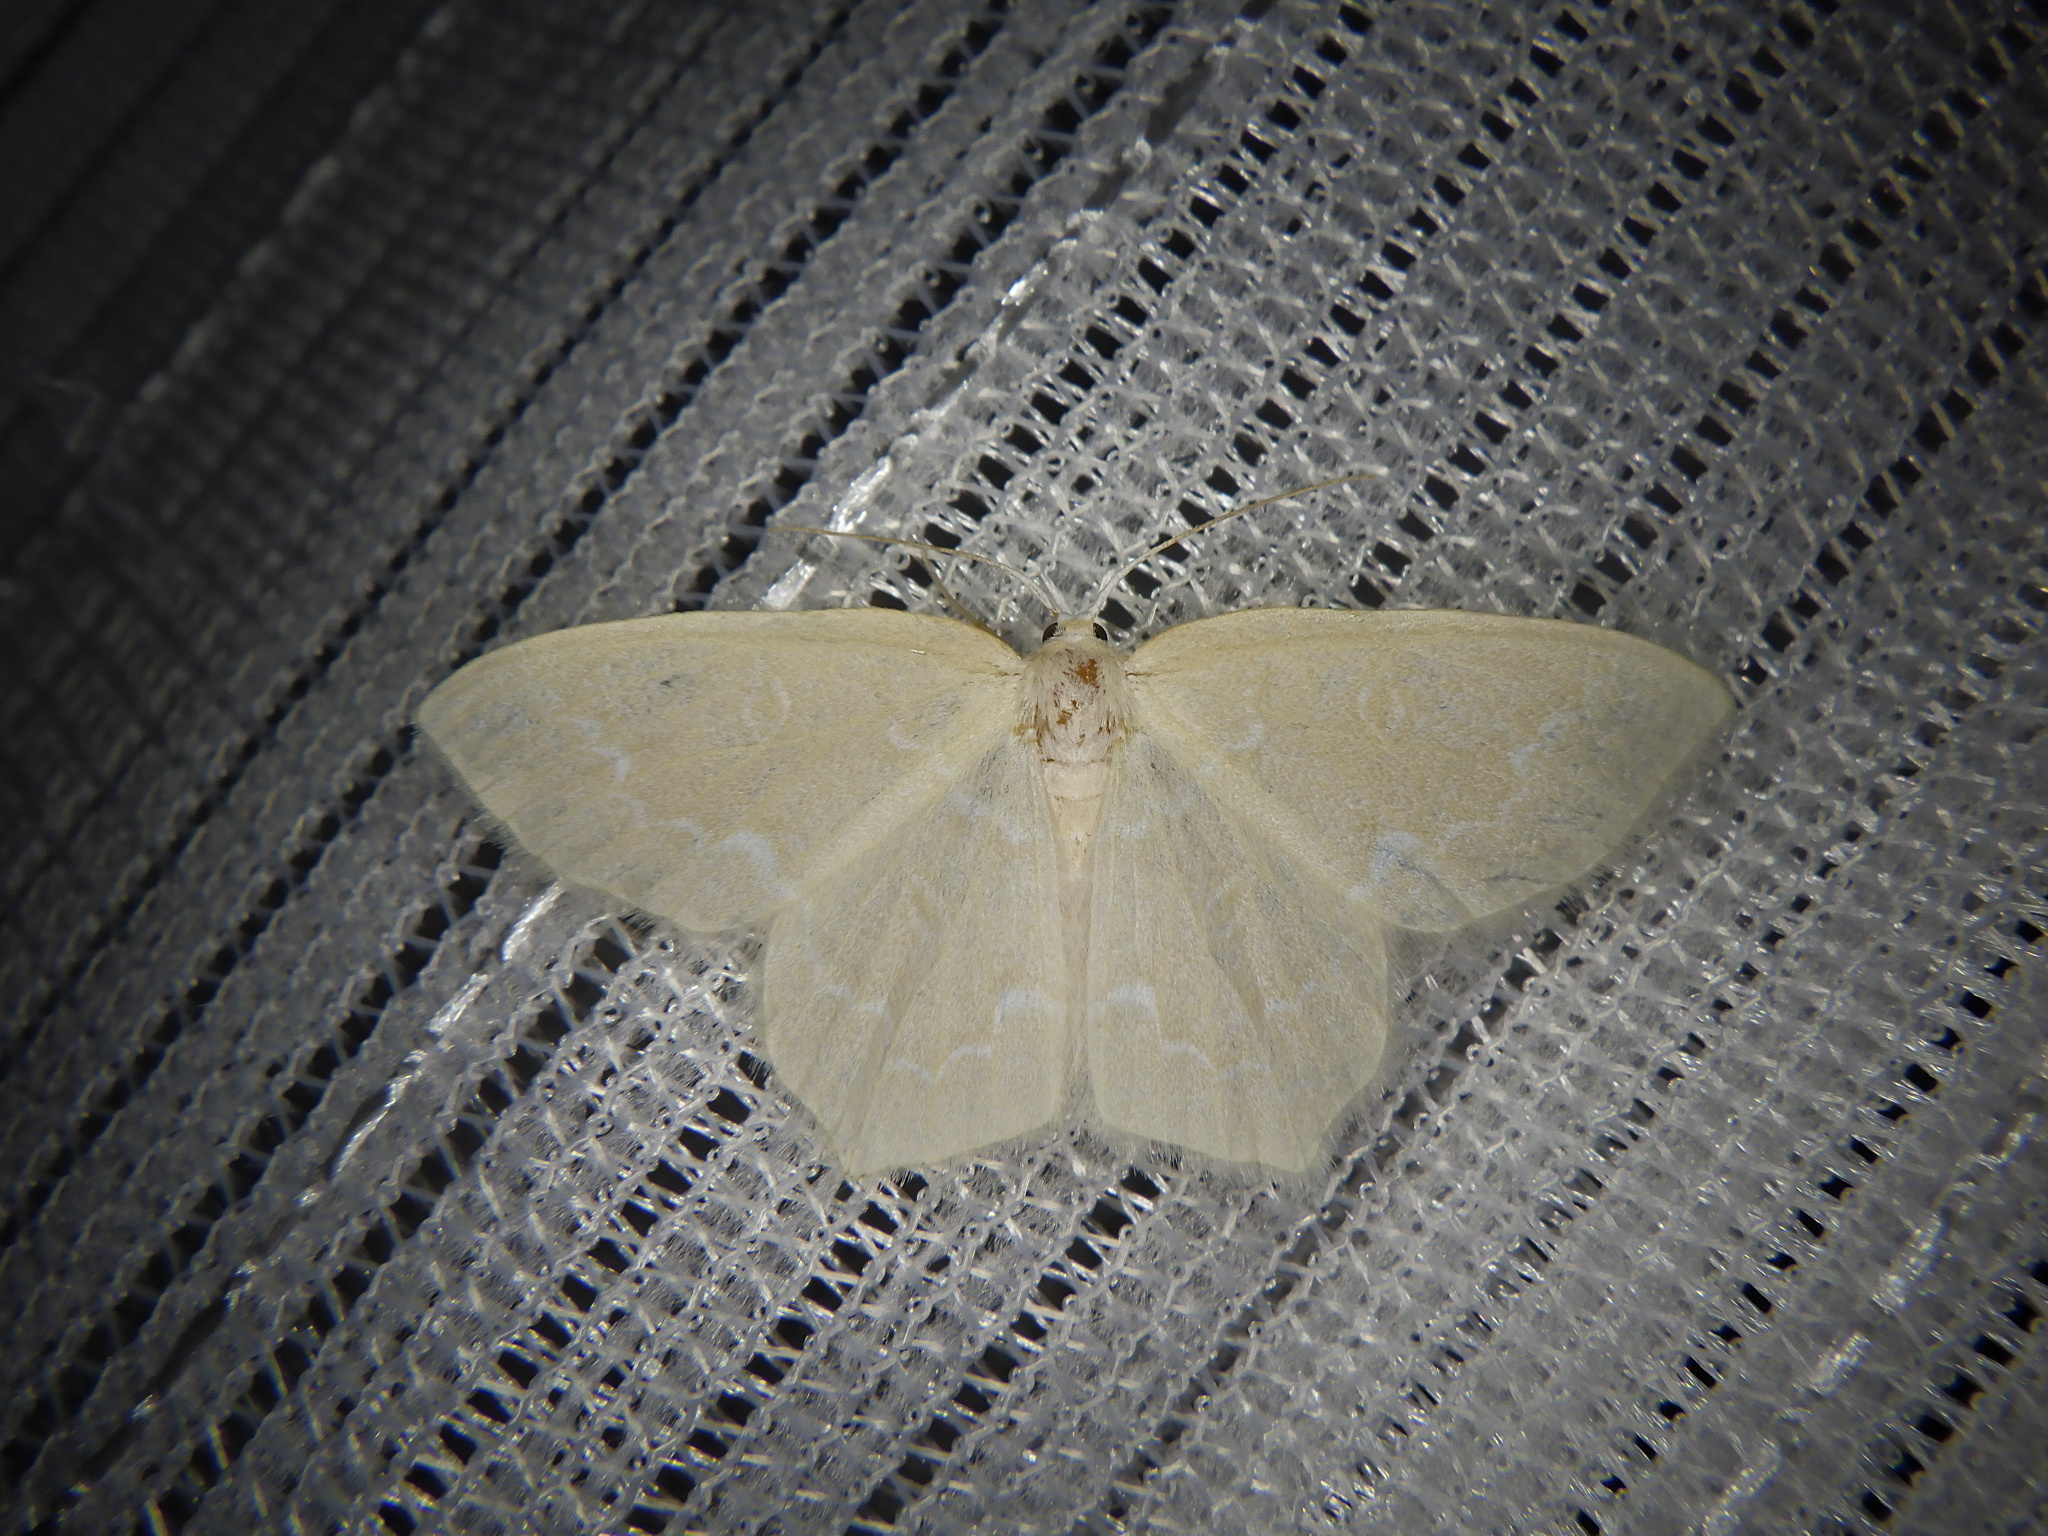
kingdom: Animalia
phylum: Arthropoda
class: Insecta
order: Lepidoptera
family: Geometridae
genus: Jodis
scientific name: Jodis praerupta
